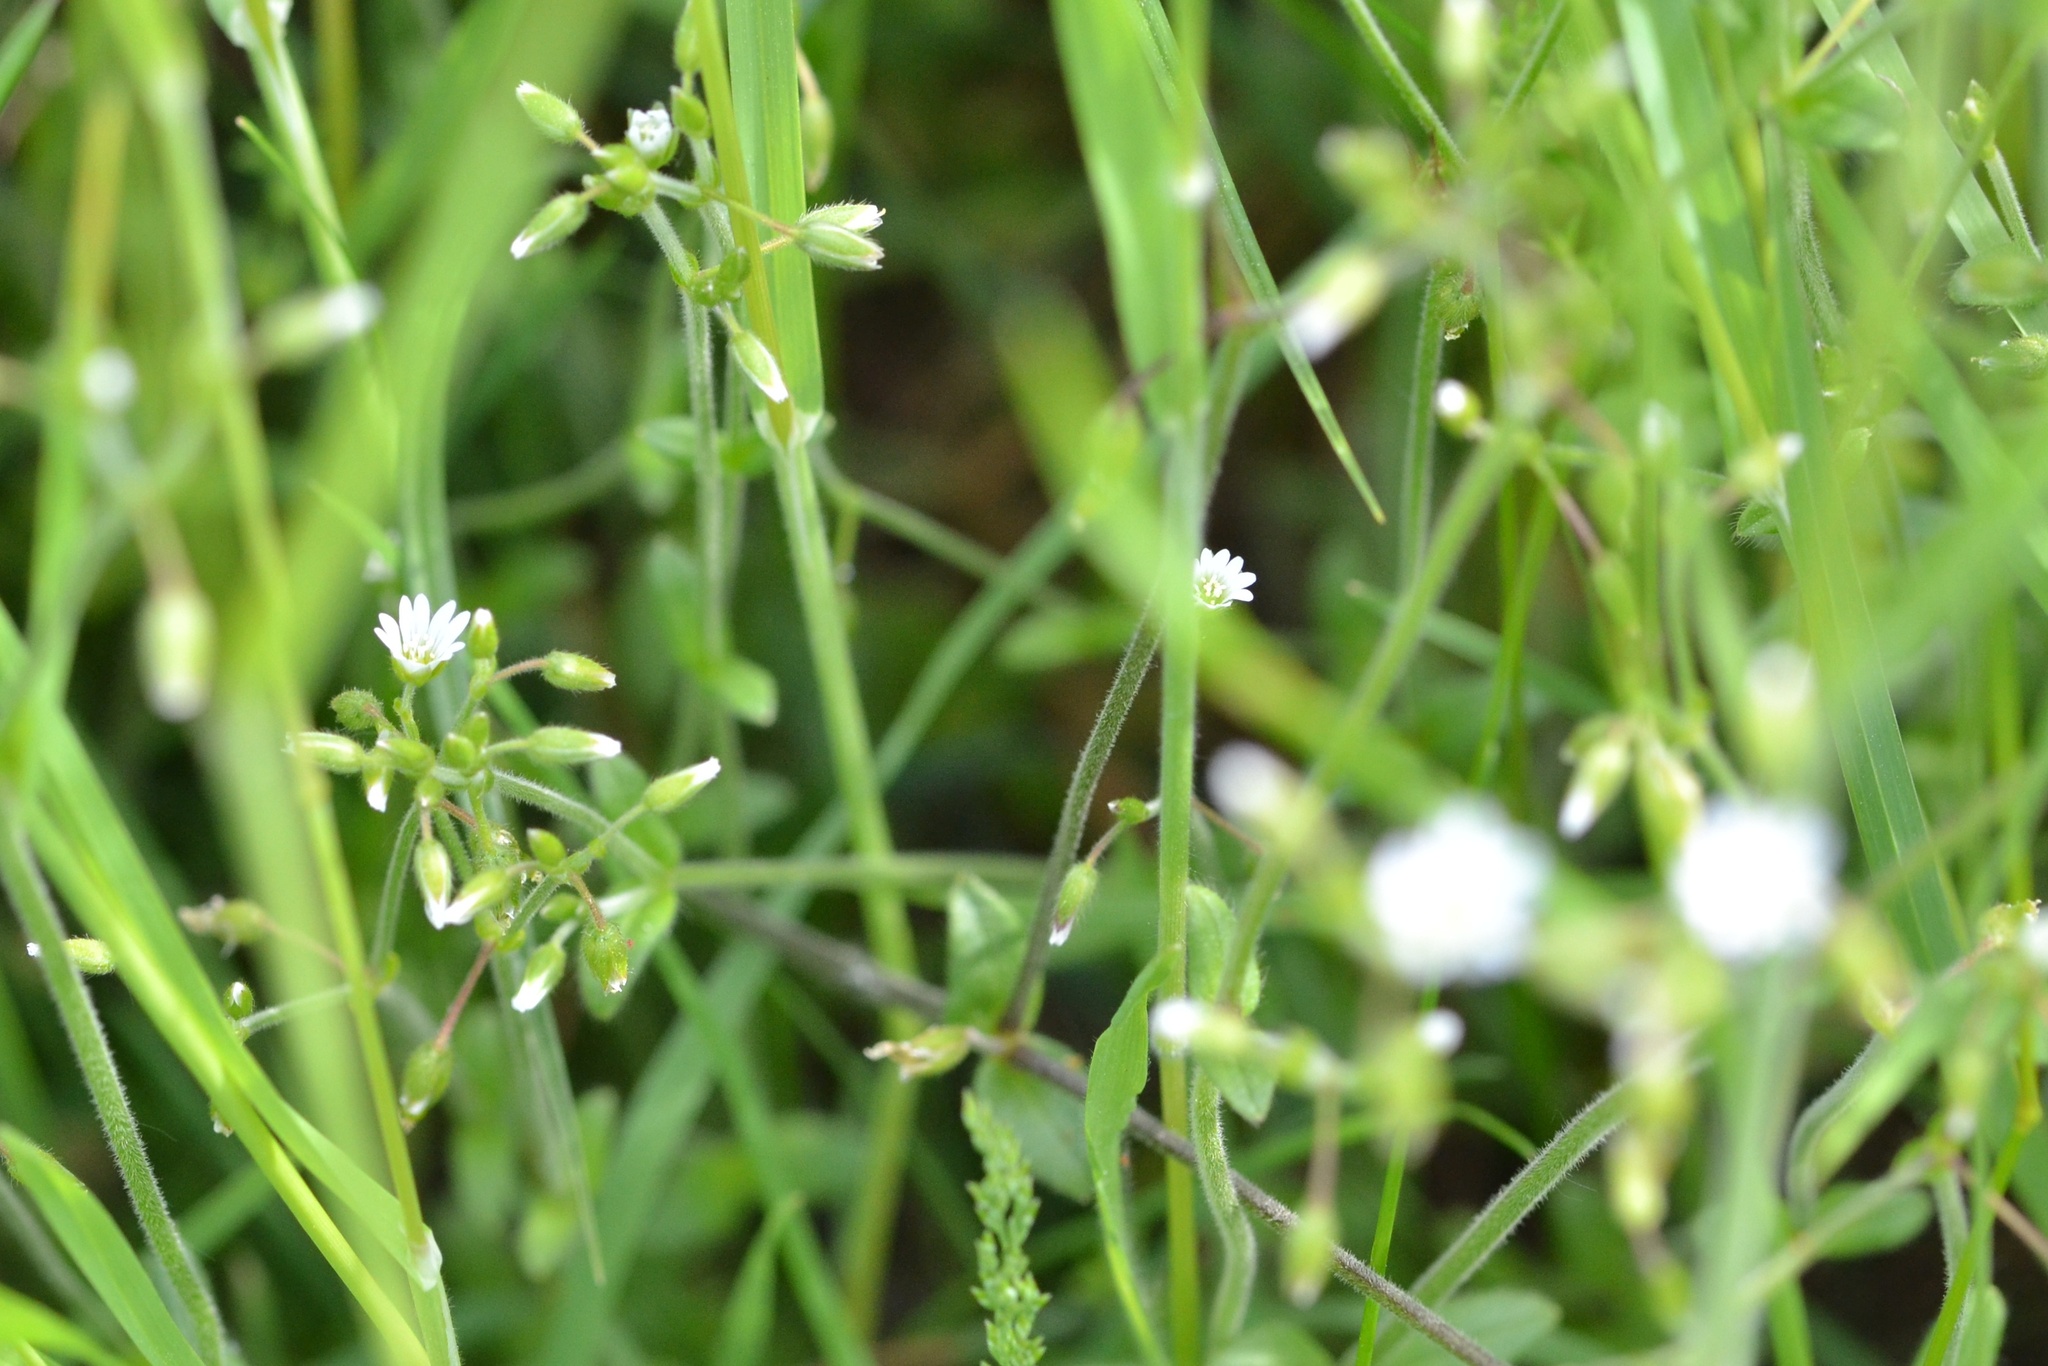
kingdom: Plantae
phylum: Tracheophyta
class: Magnoliopsida
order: Caryophyllales
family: Caryophyllaceae
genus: Cerastium
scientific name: Cerastium holosteoides
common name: Big chickweed
